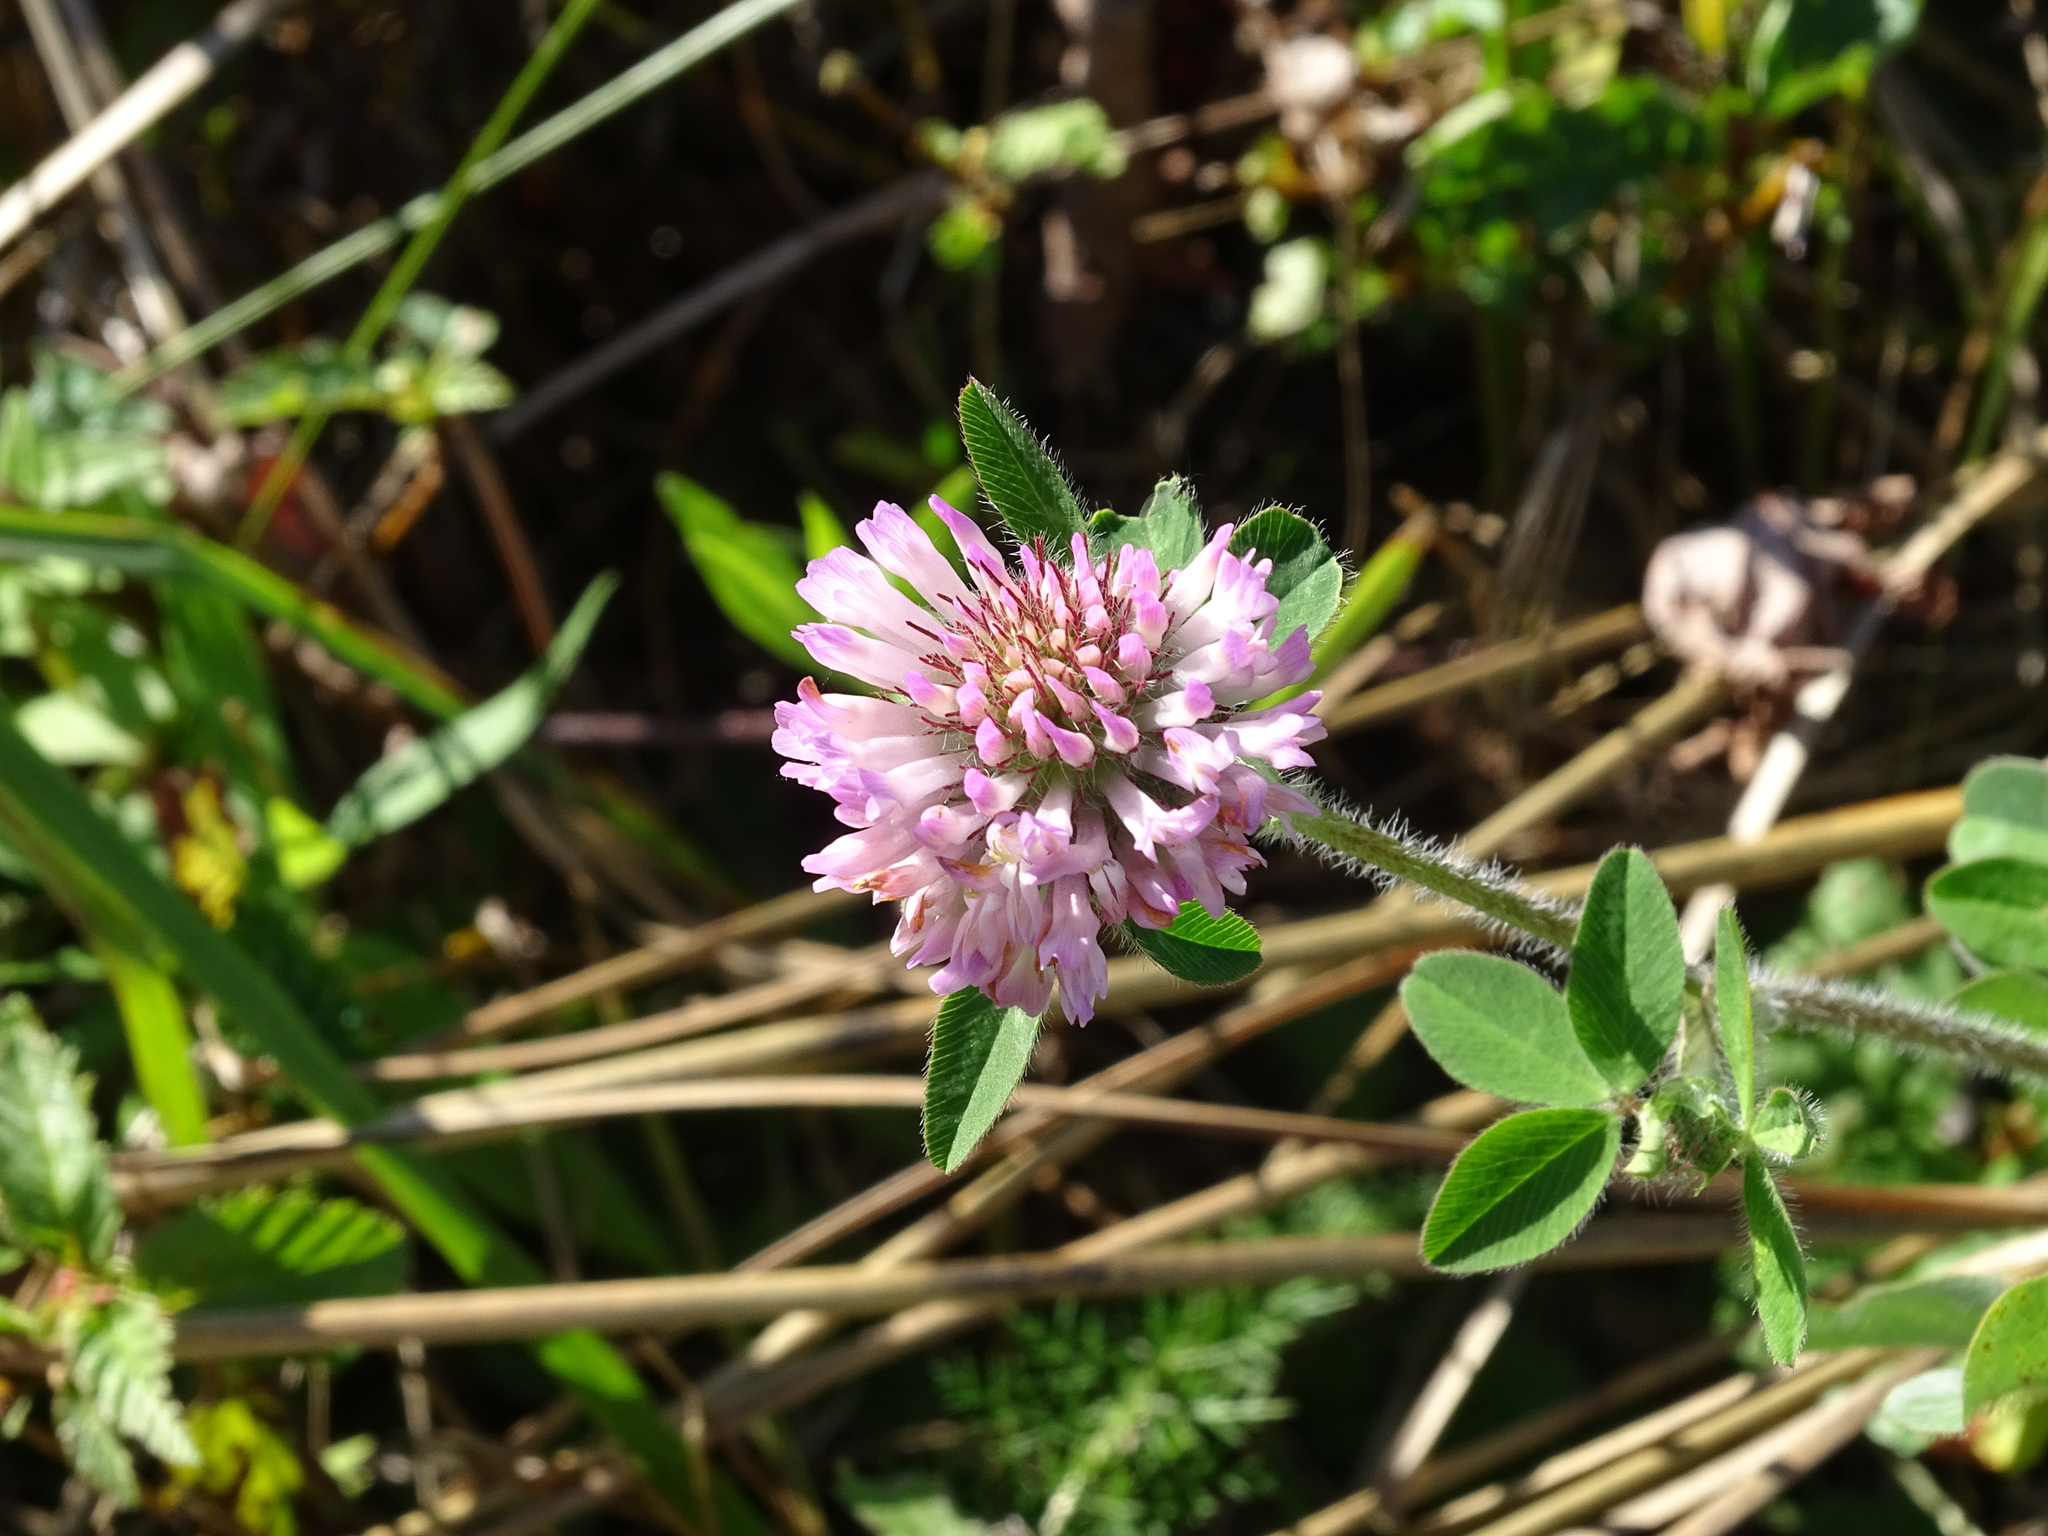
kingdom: Plantae
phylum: Tracheophyta
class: Magnoliopsida
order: Fabales
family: Fabaceae
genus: Trifolium
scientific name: Trifolium pratense
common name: Red clover
